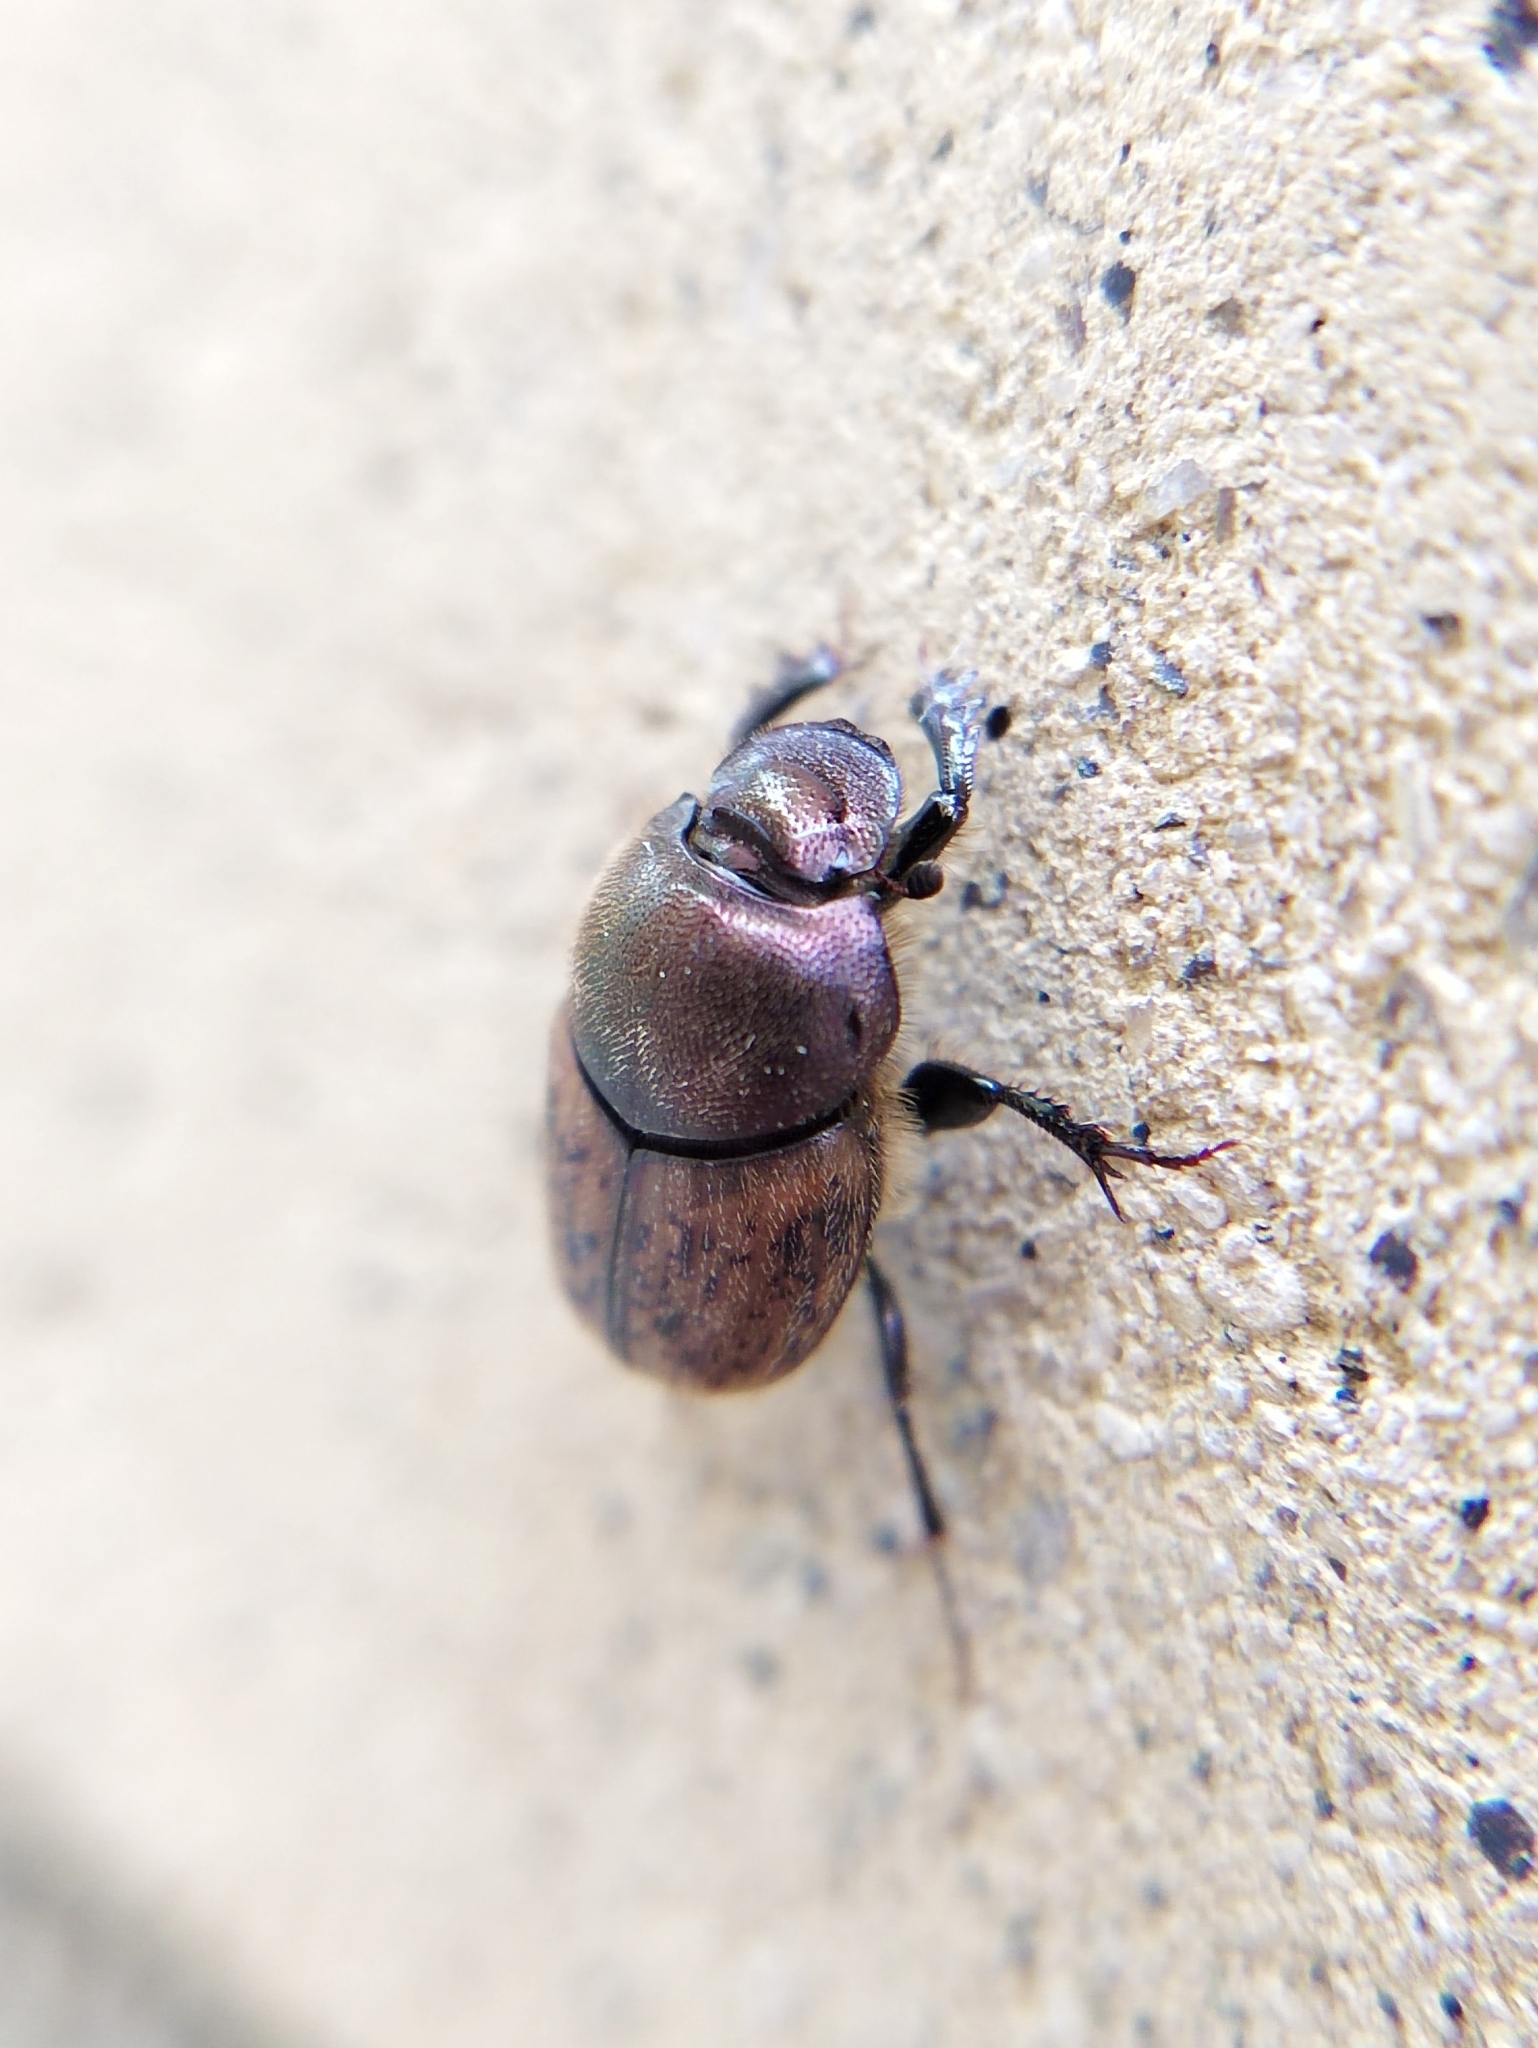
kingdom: Animalia
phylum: Arthropoda
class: Insecta
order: Coleoptera
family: Scarabaeidae
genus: Onthophagus
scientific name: Onthophagus coenobita
